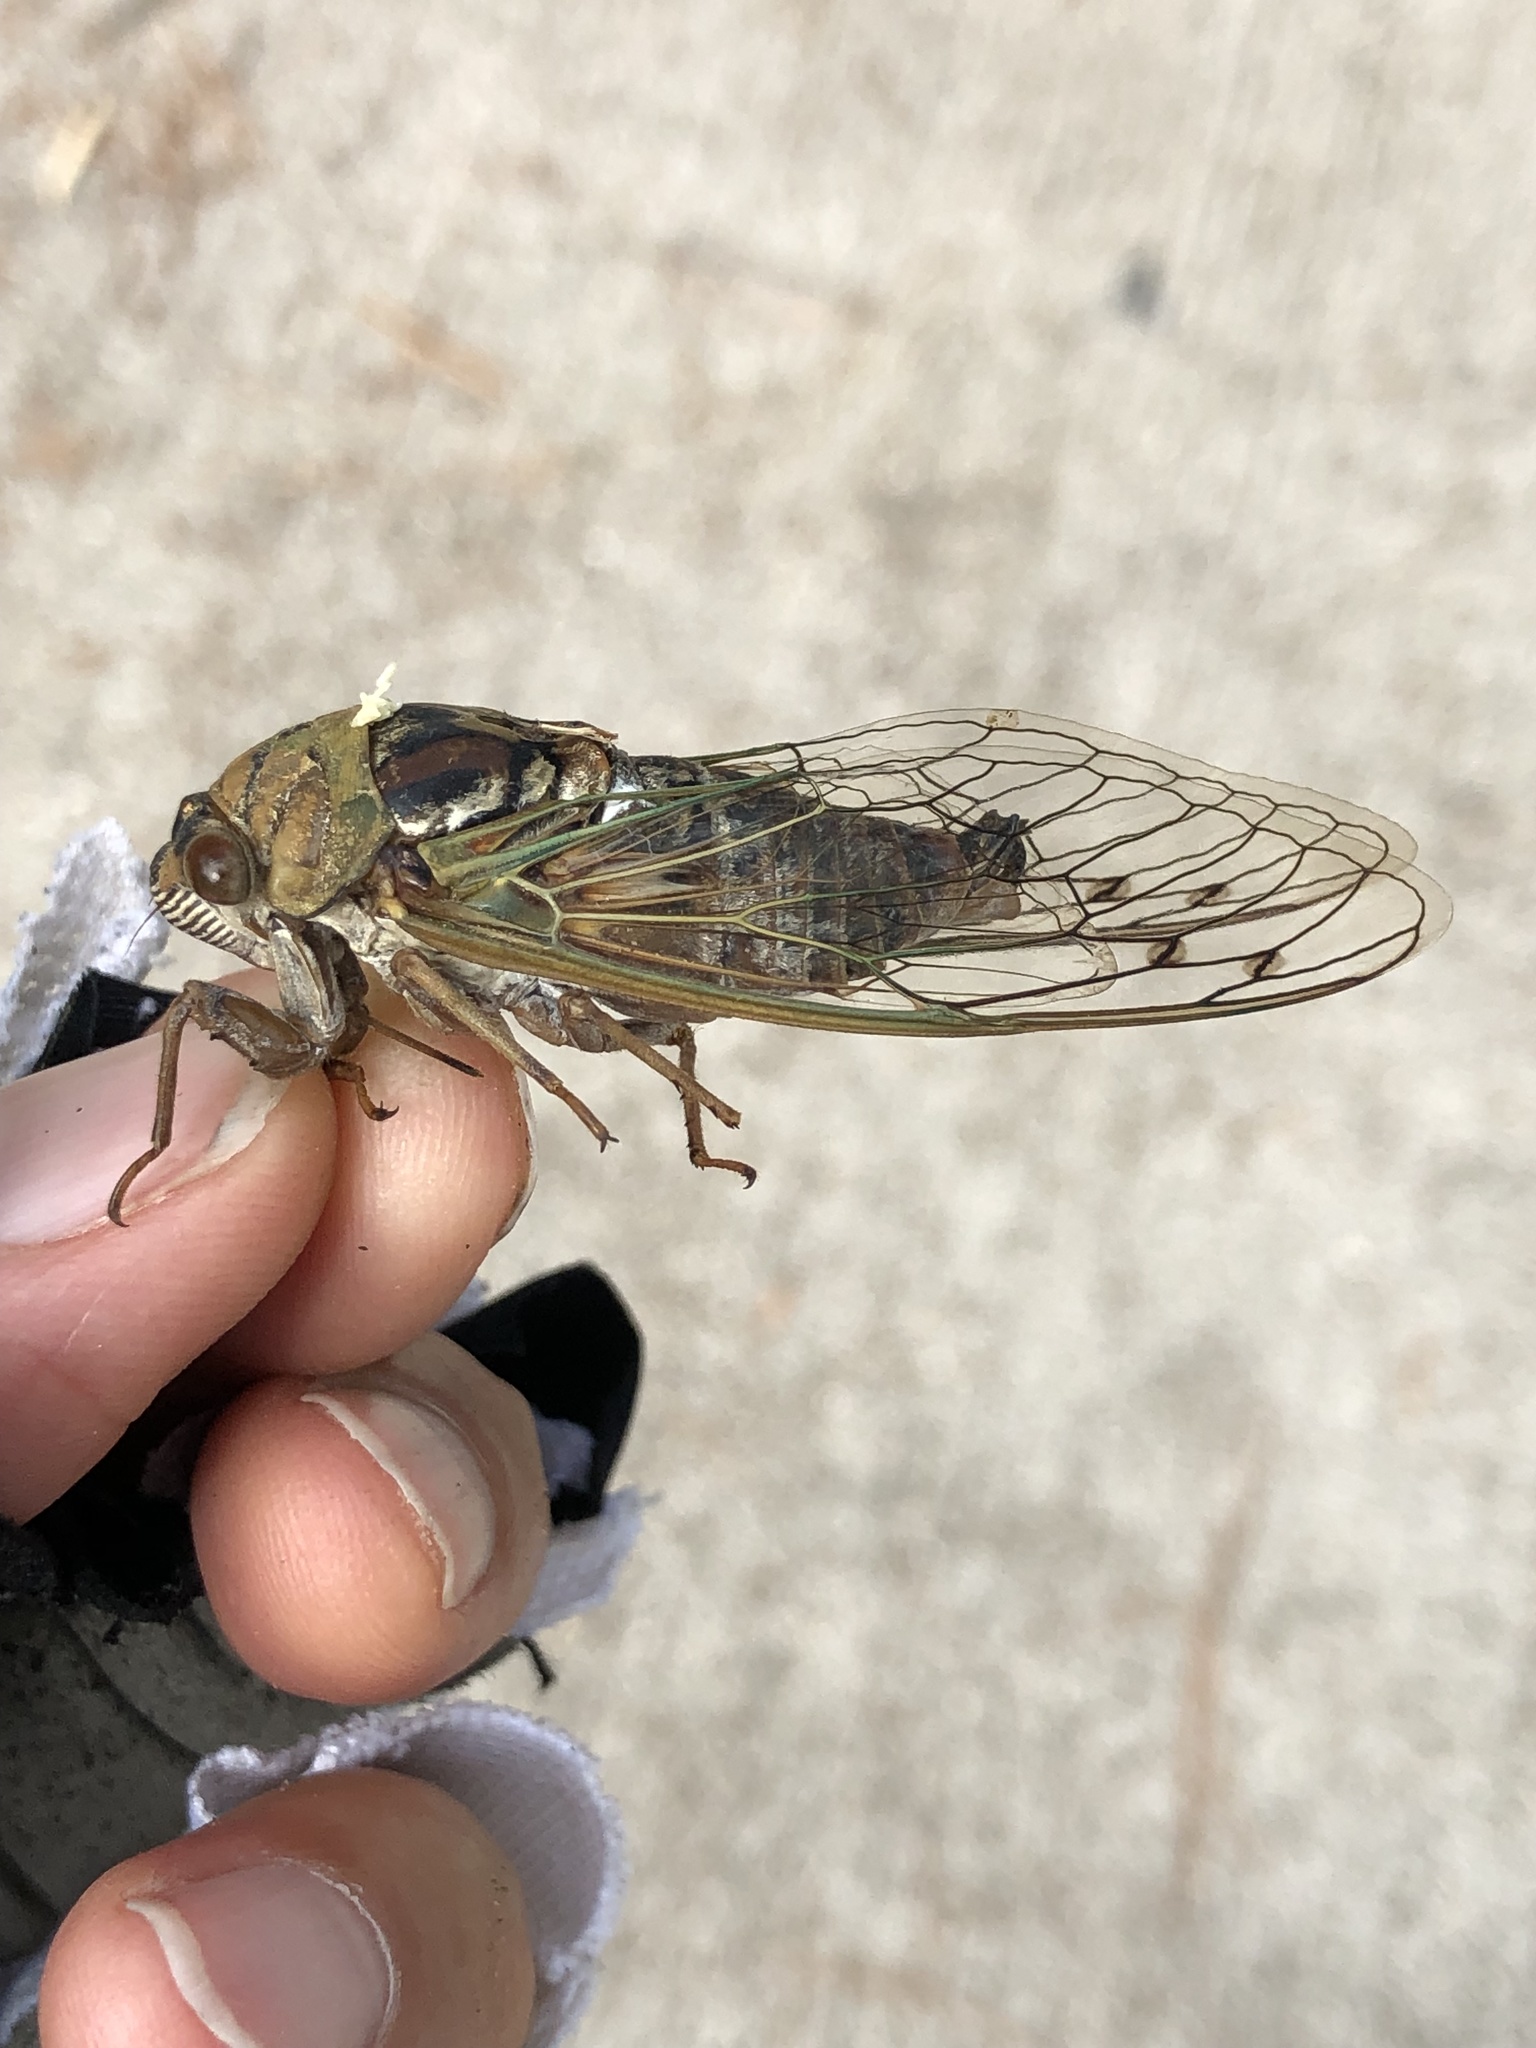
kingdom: Animalia
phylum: Arthropoda
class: Insecta
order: Hemiptera
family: Cicadidae
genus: Megatibicen
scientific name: Megatibicen resh
